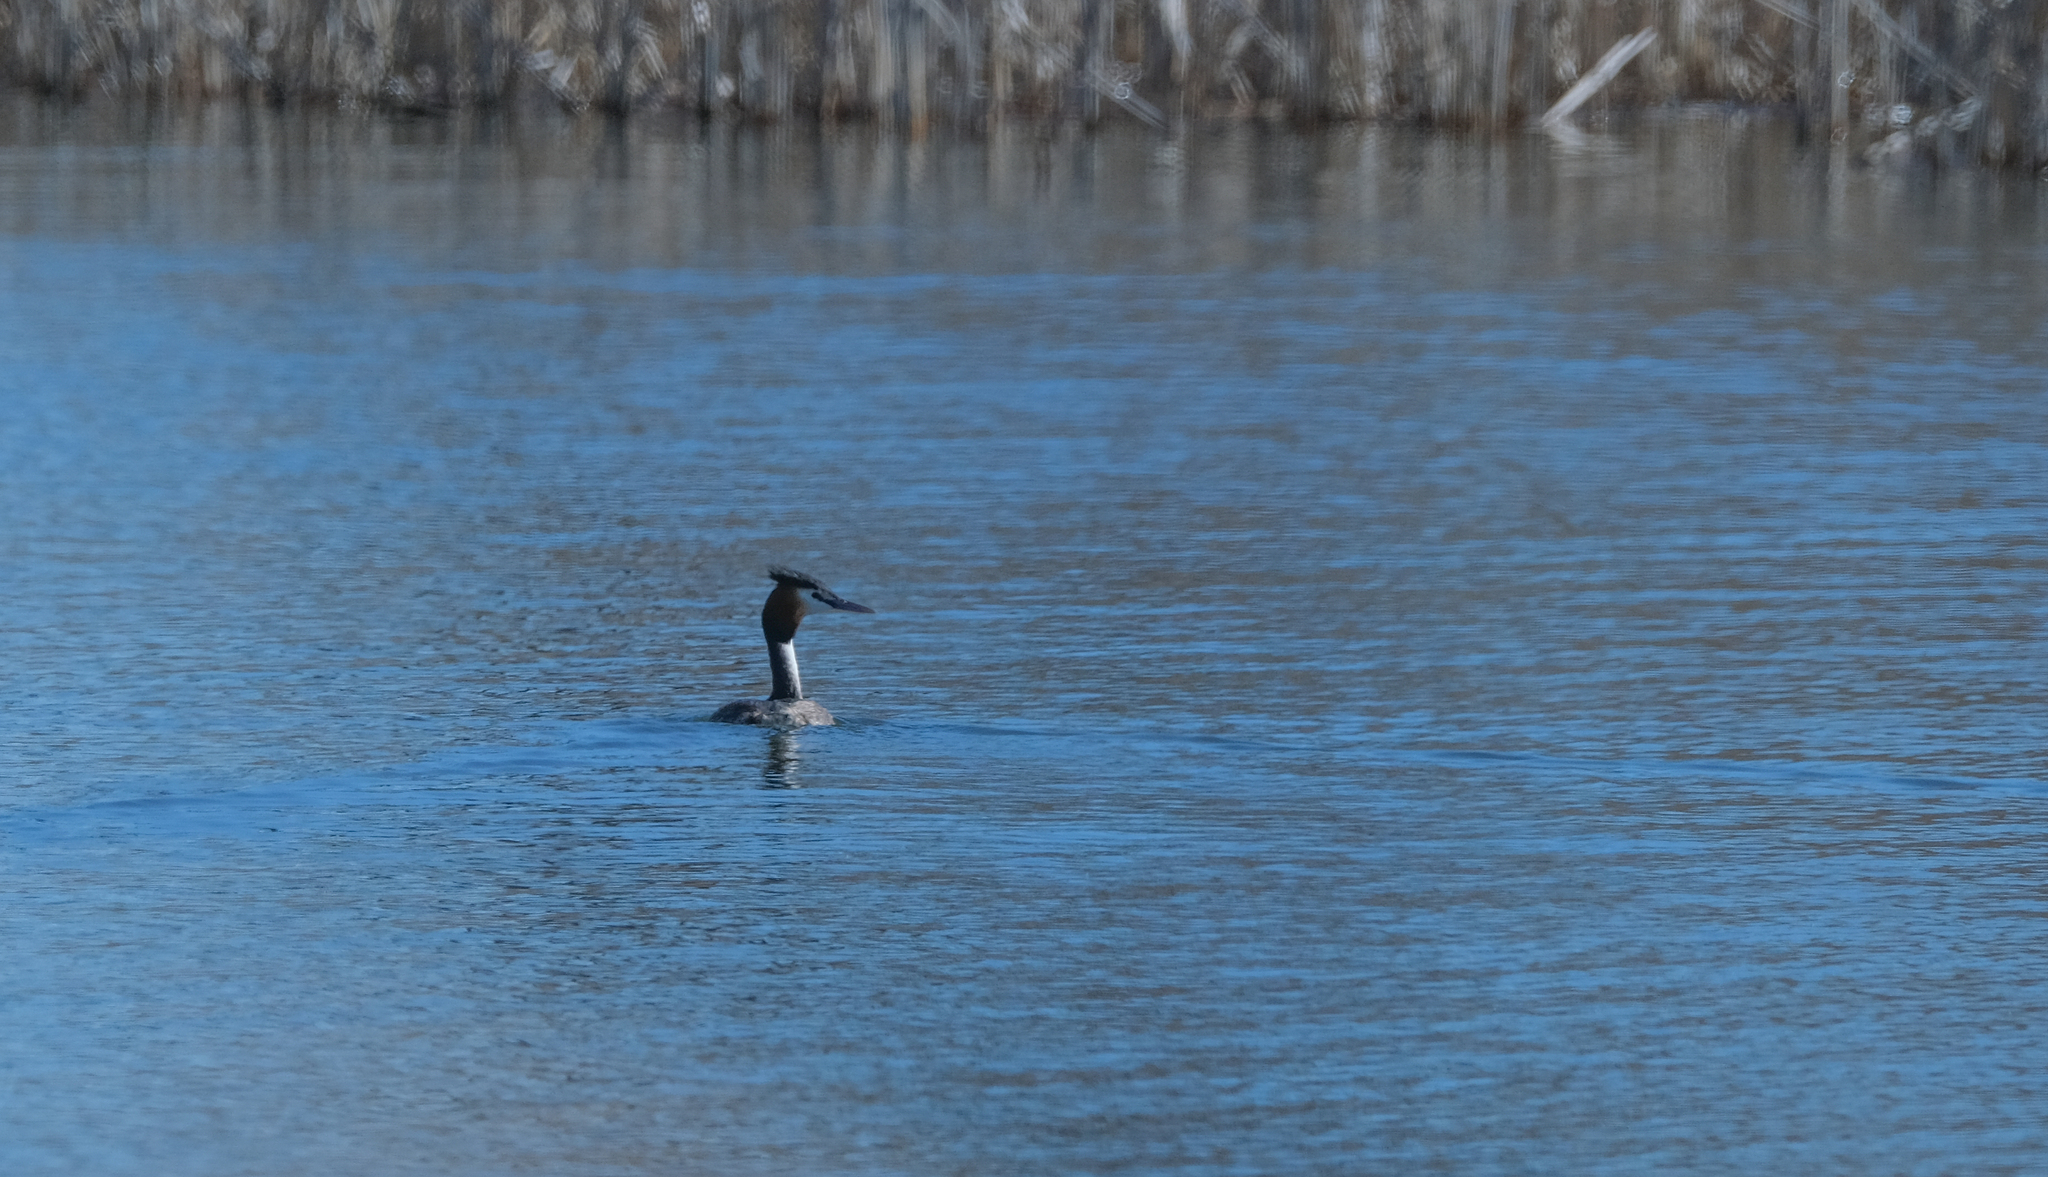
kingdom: Animalia
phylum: Chordata
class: Aves
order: Podicipediformes
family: Podicipedidae
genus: Podiceps
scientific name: Podiceps cristatus
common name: Great crested grebe
